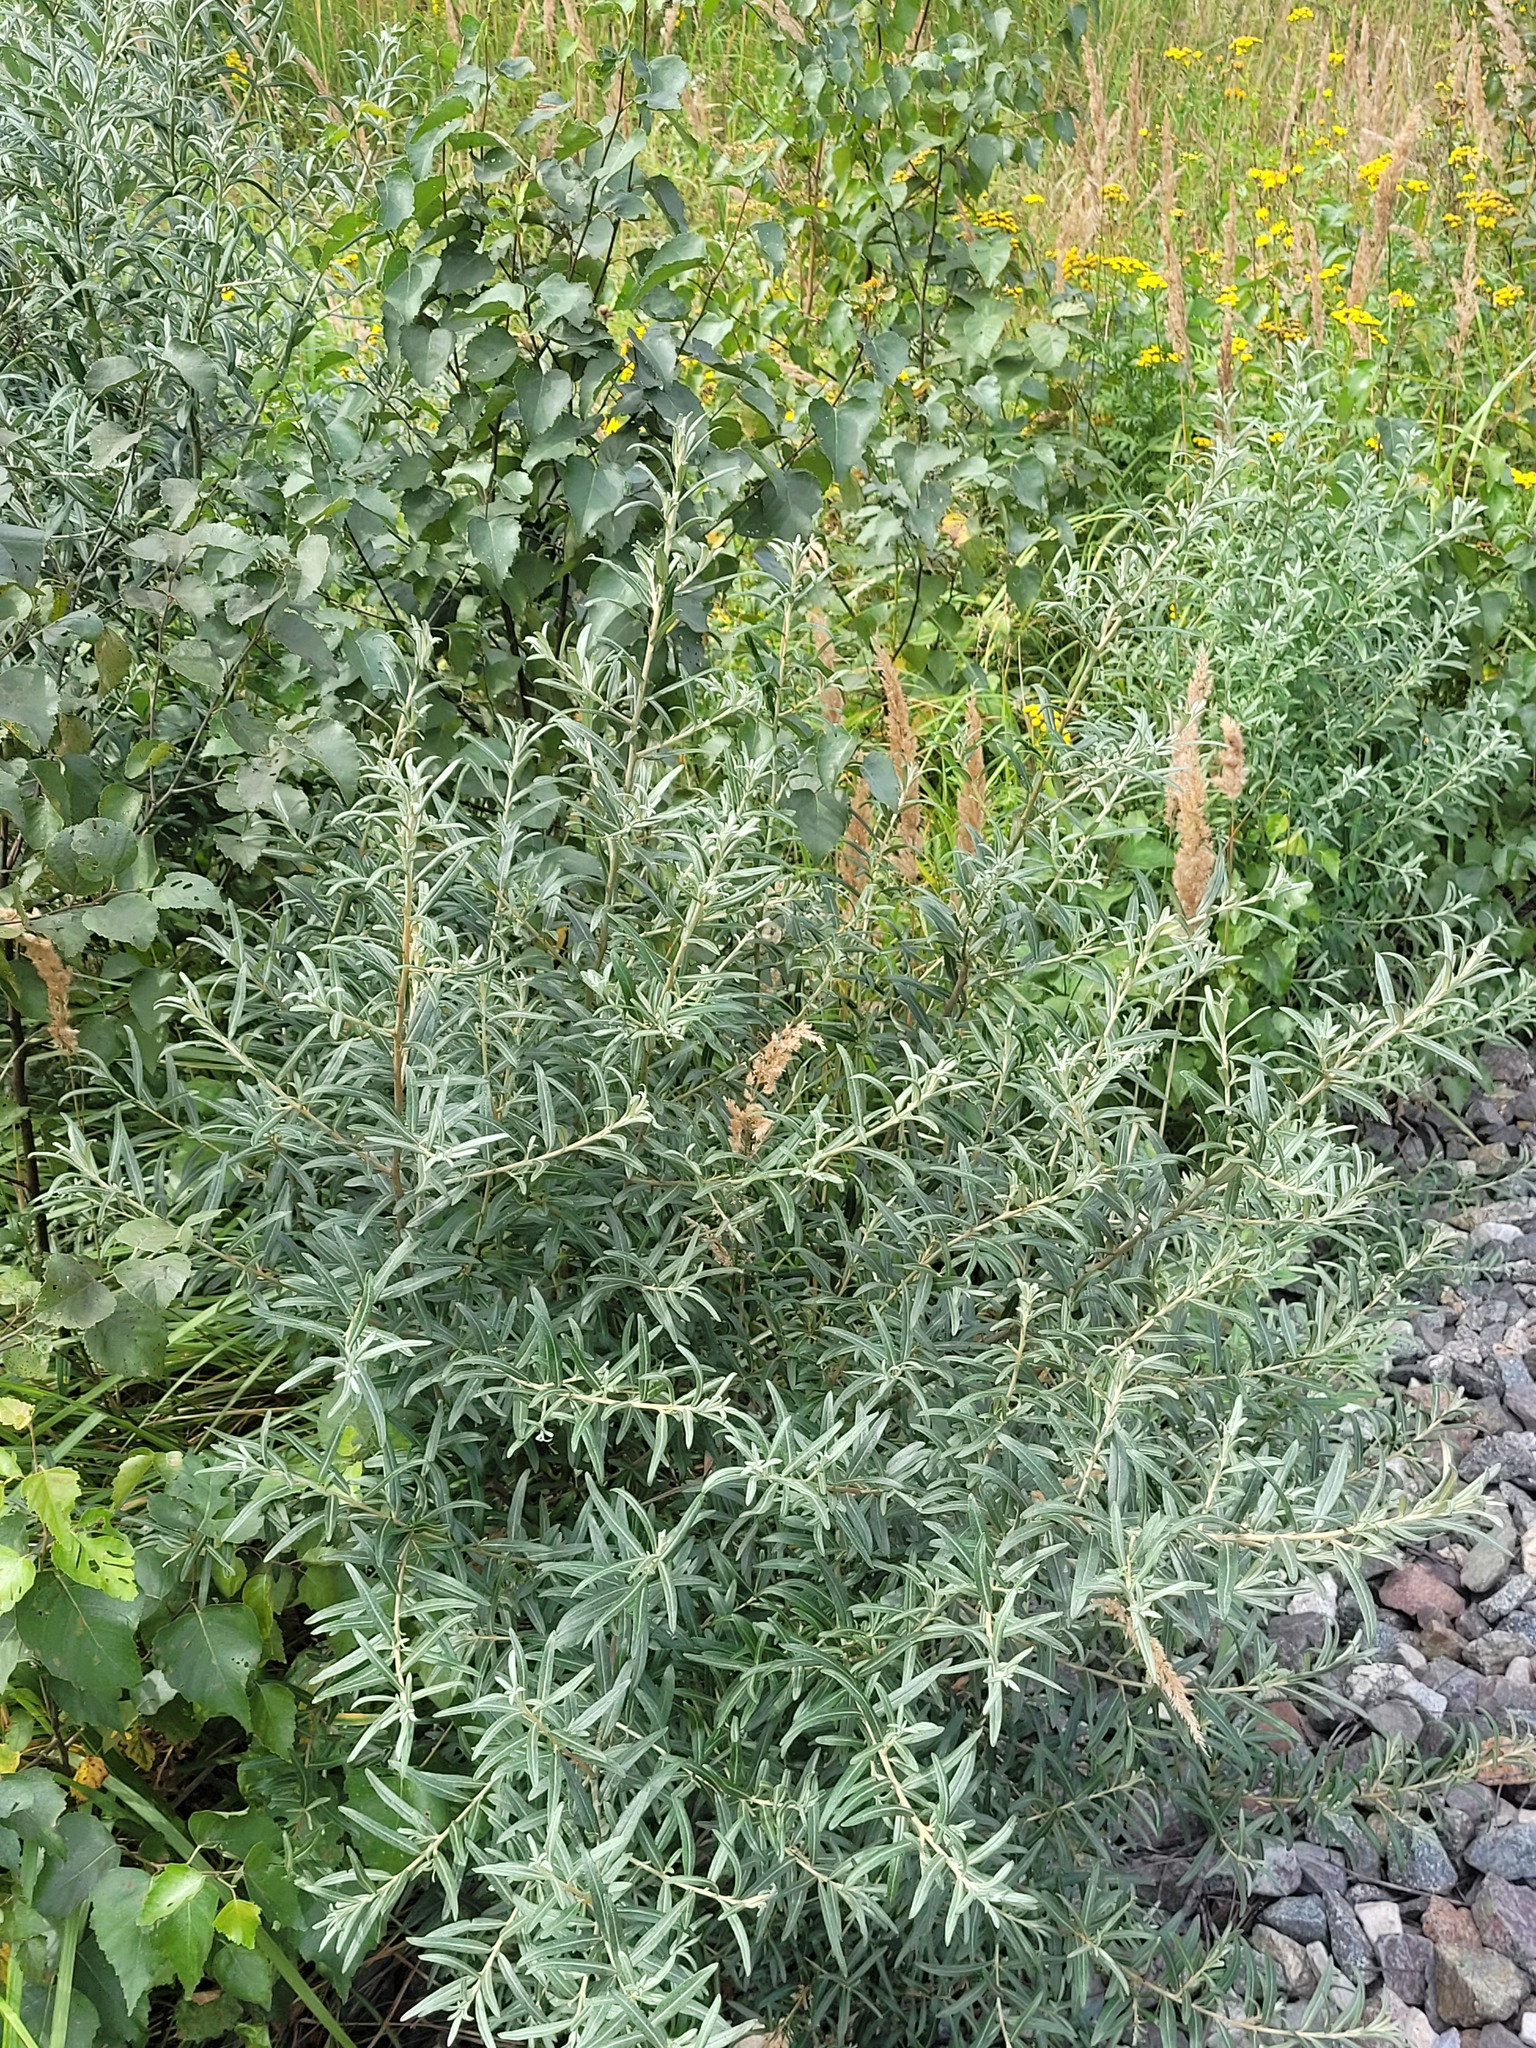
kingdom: Plantae
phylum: Tracheophyta
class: Magnoliopsida
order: Rosales
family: Elaeagnaceae
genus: Hippophae
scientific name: Hippophae rhamnoides
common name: Sea-buckthorn
